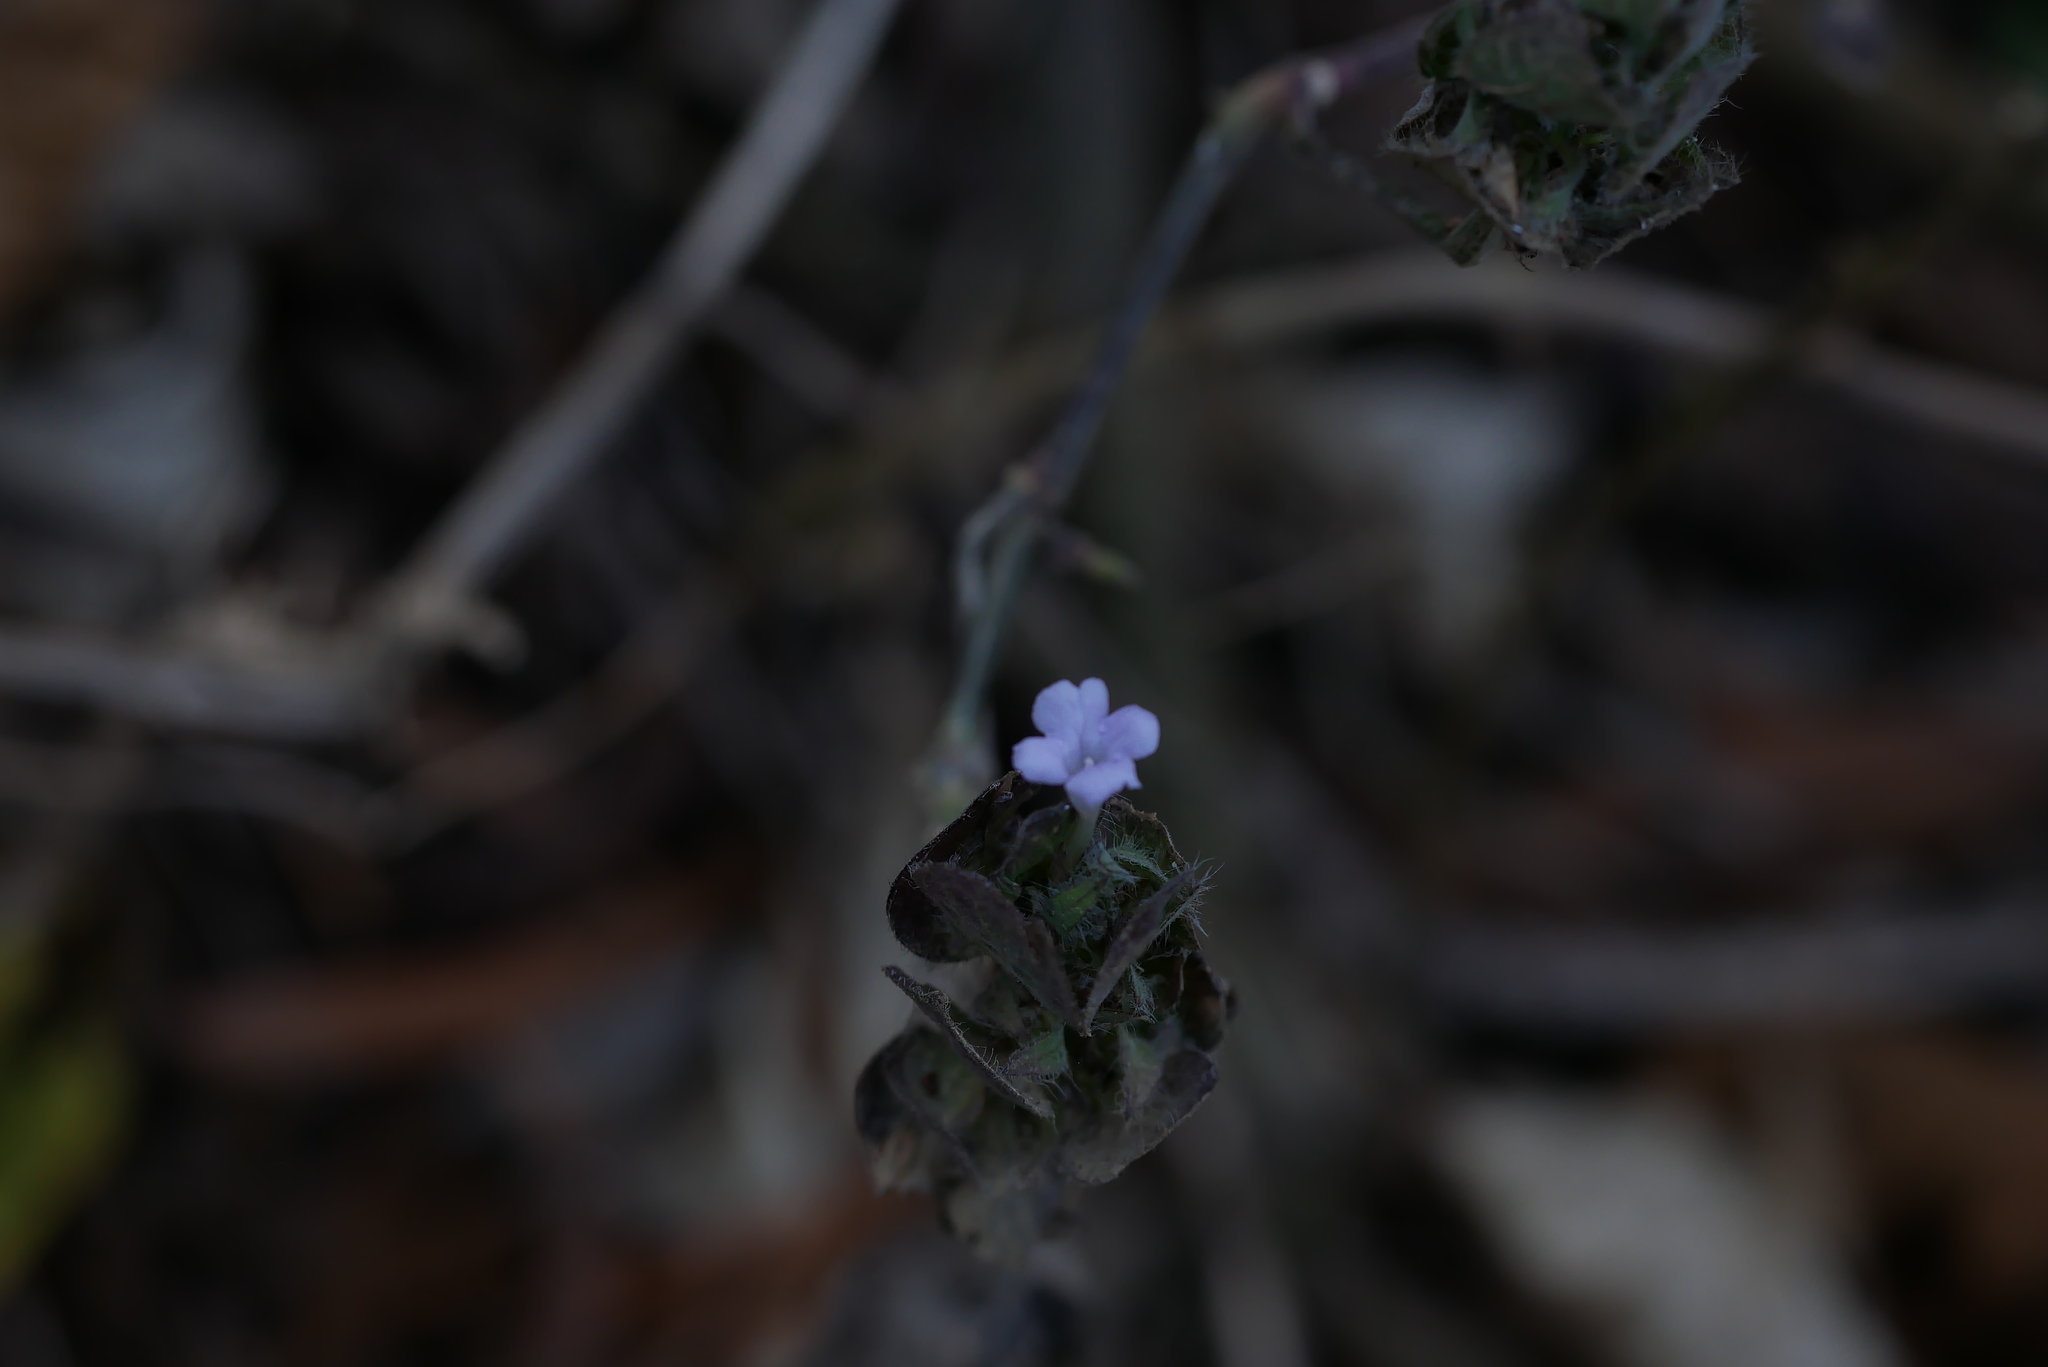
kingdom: Plantae
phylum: Tracheophyta
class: Magnoliopsida
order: Lamiales
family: Acanthaceae
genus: Ruellia
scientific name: Ruellia blechum
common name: Browne's blechum
